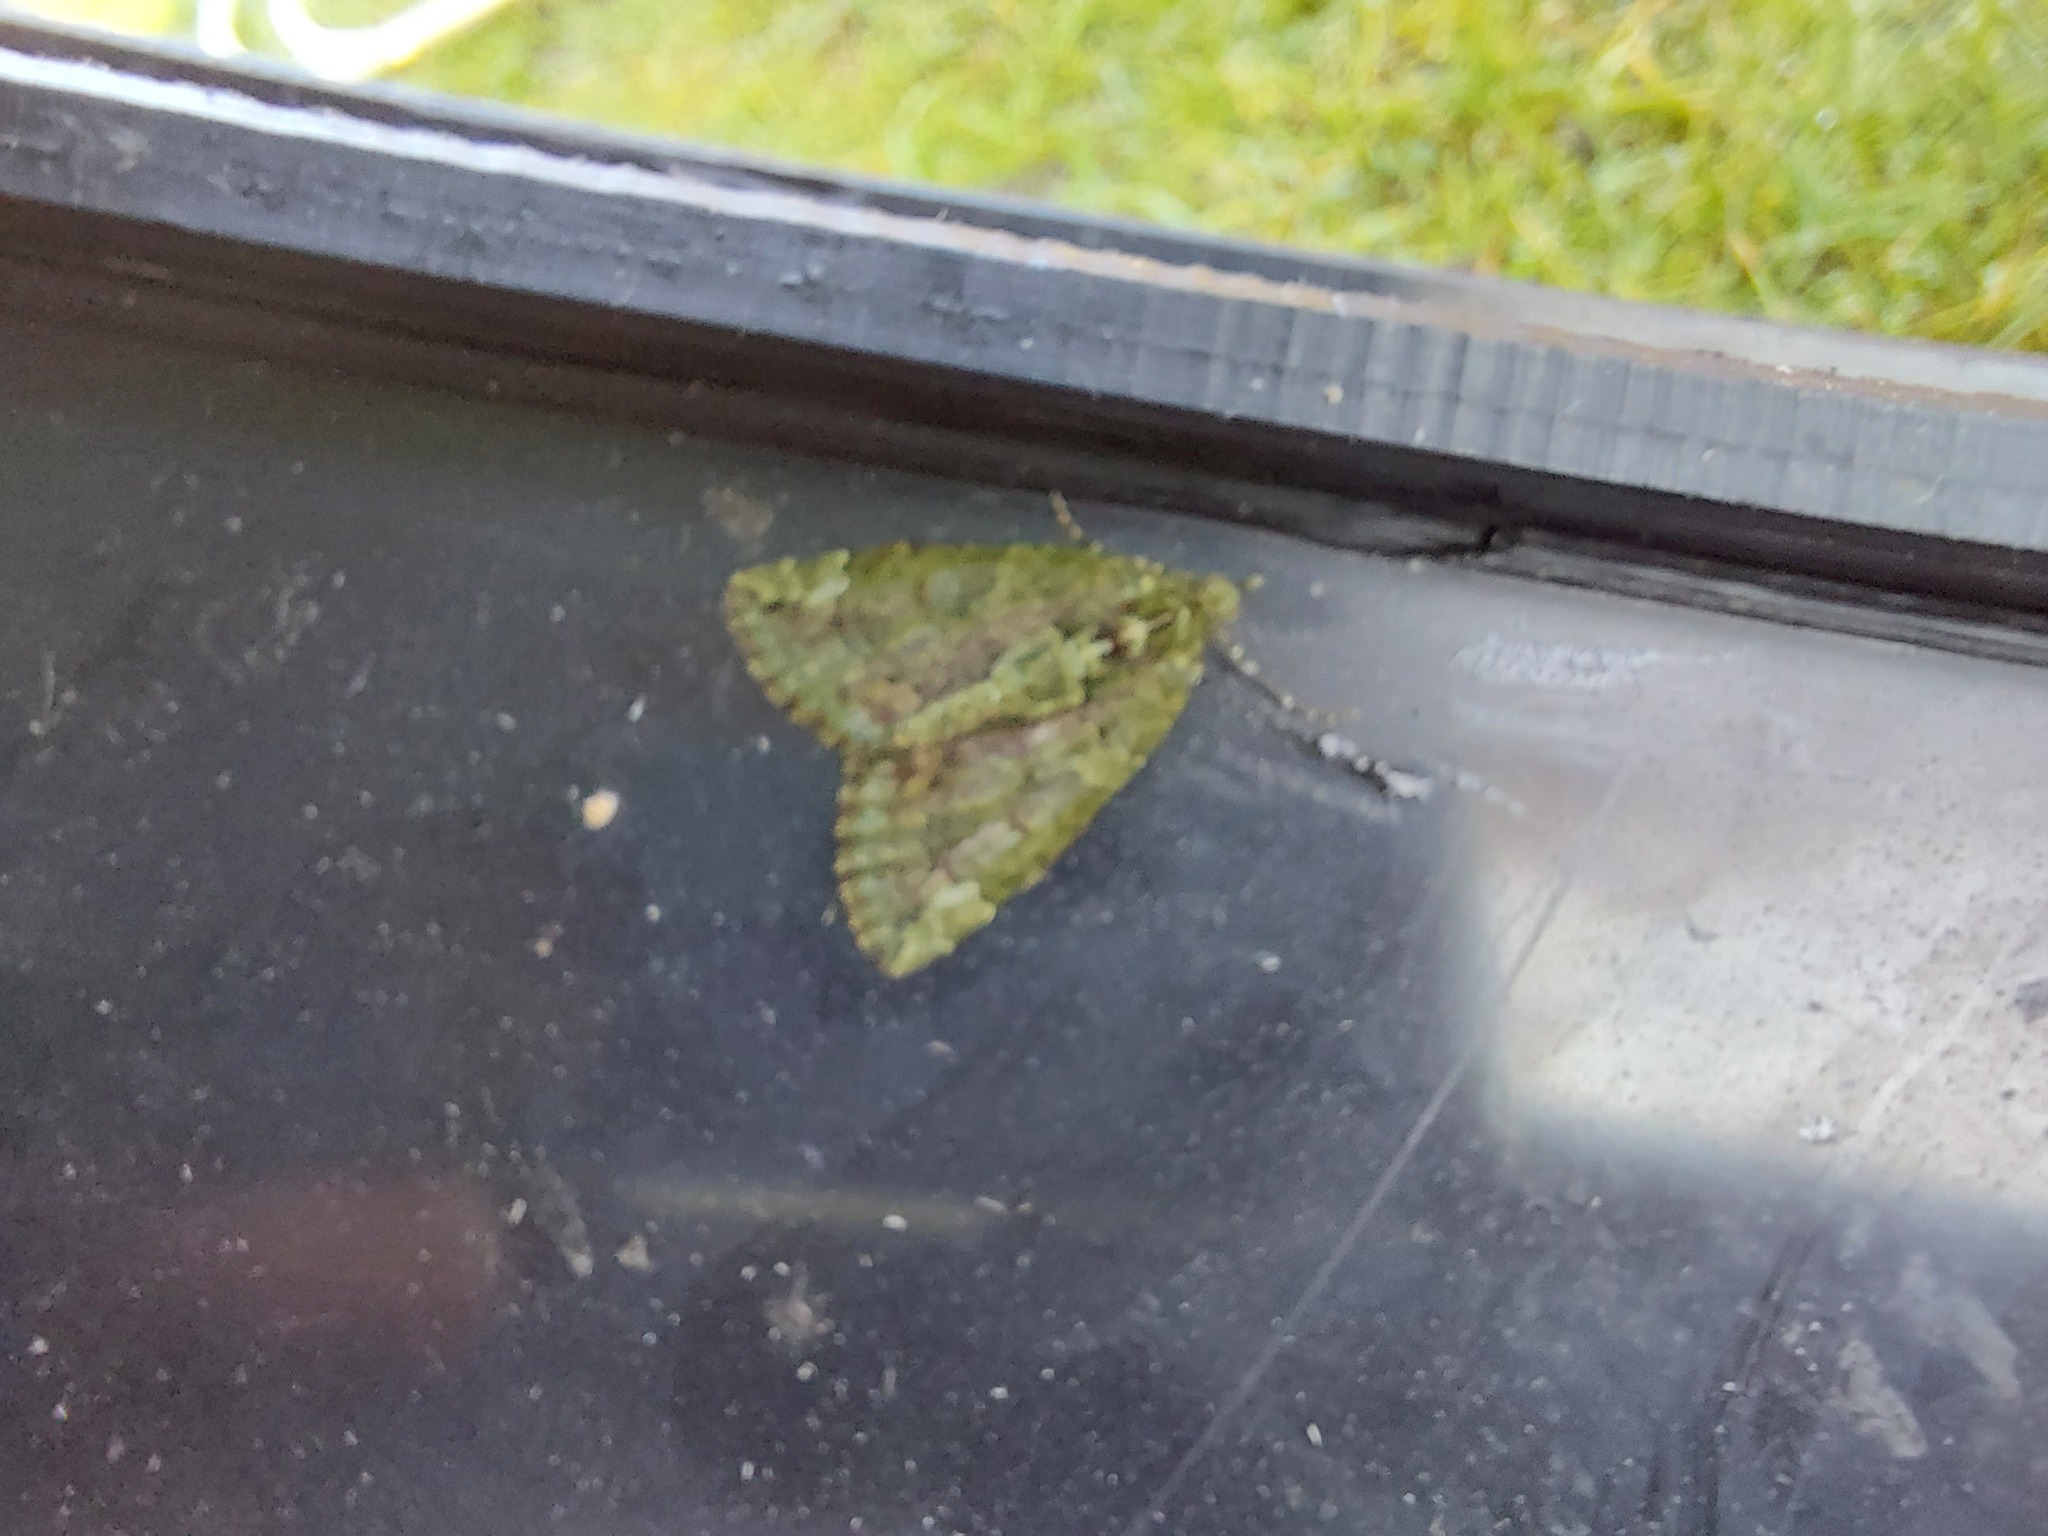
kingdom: Animalia
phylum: Arthropoda
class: Insecta
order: Lepidoptera
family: Geometridae
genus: Chloroclysta
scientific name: Chloroclysta siterata
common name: Red-green carpet
